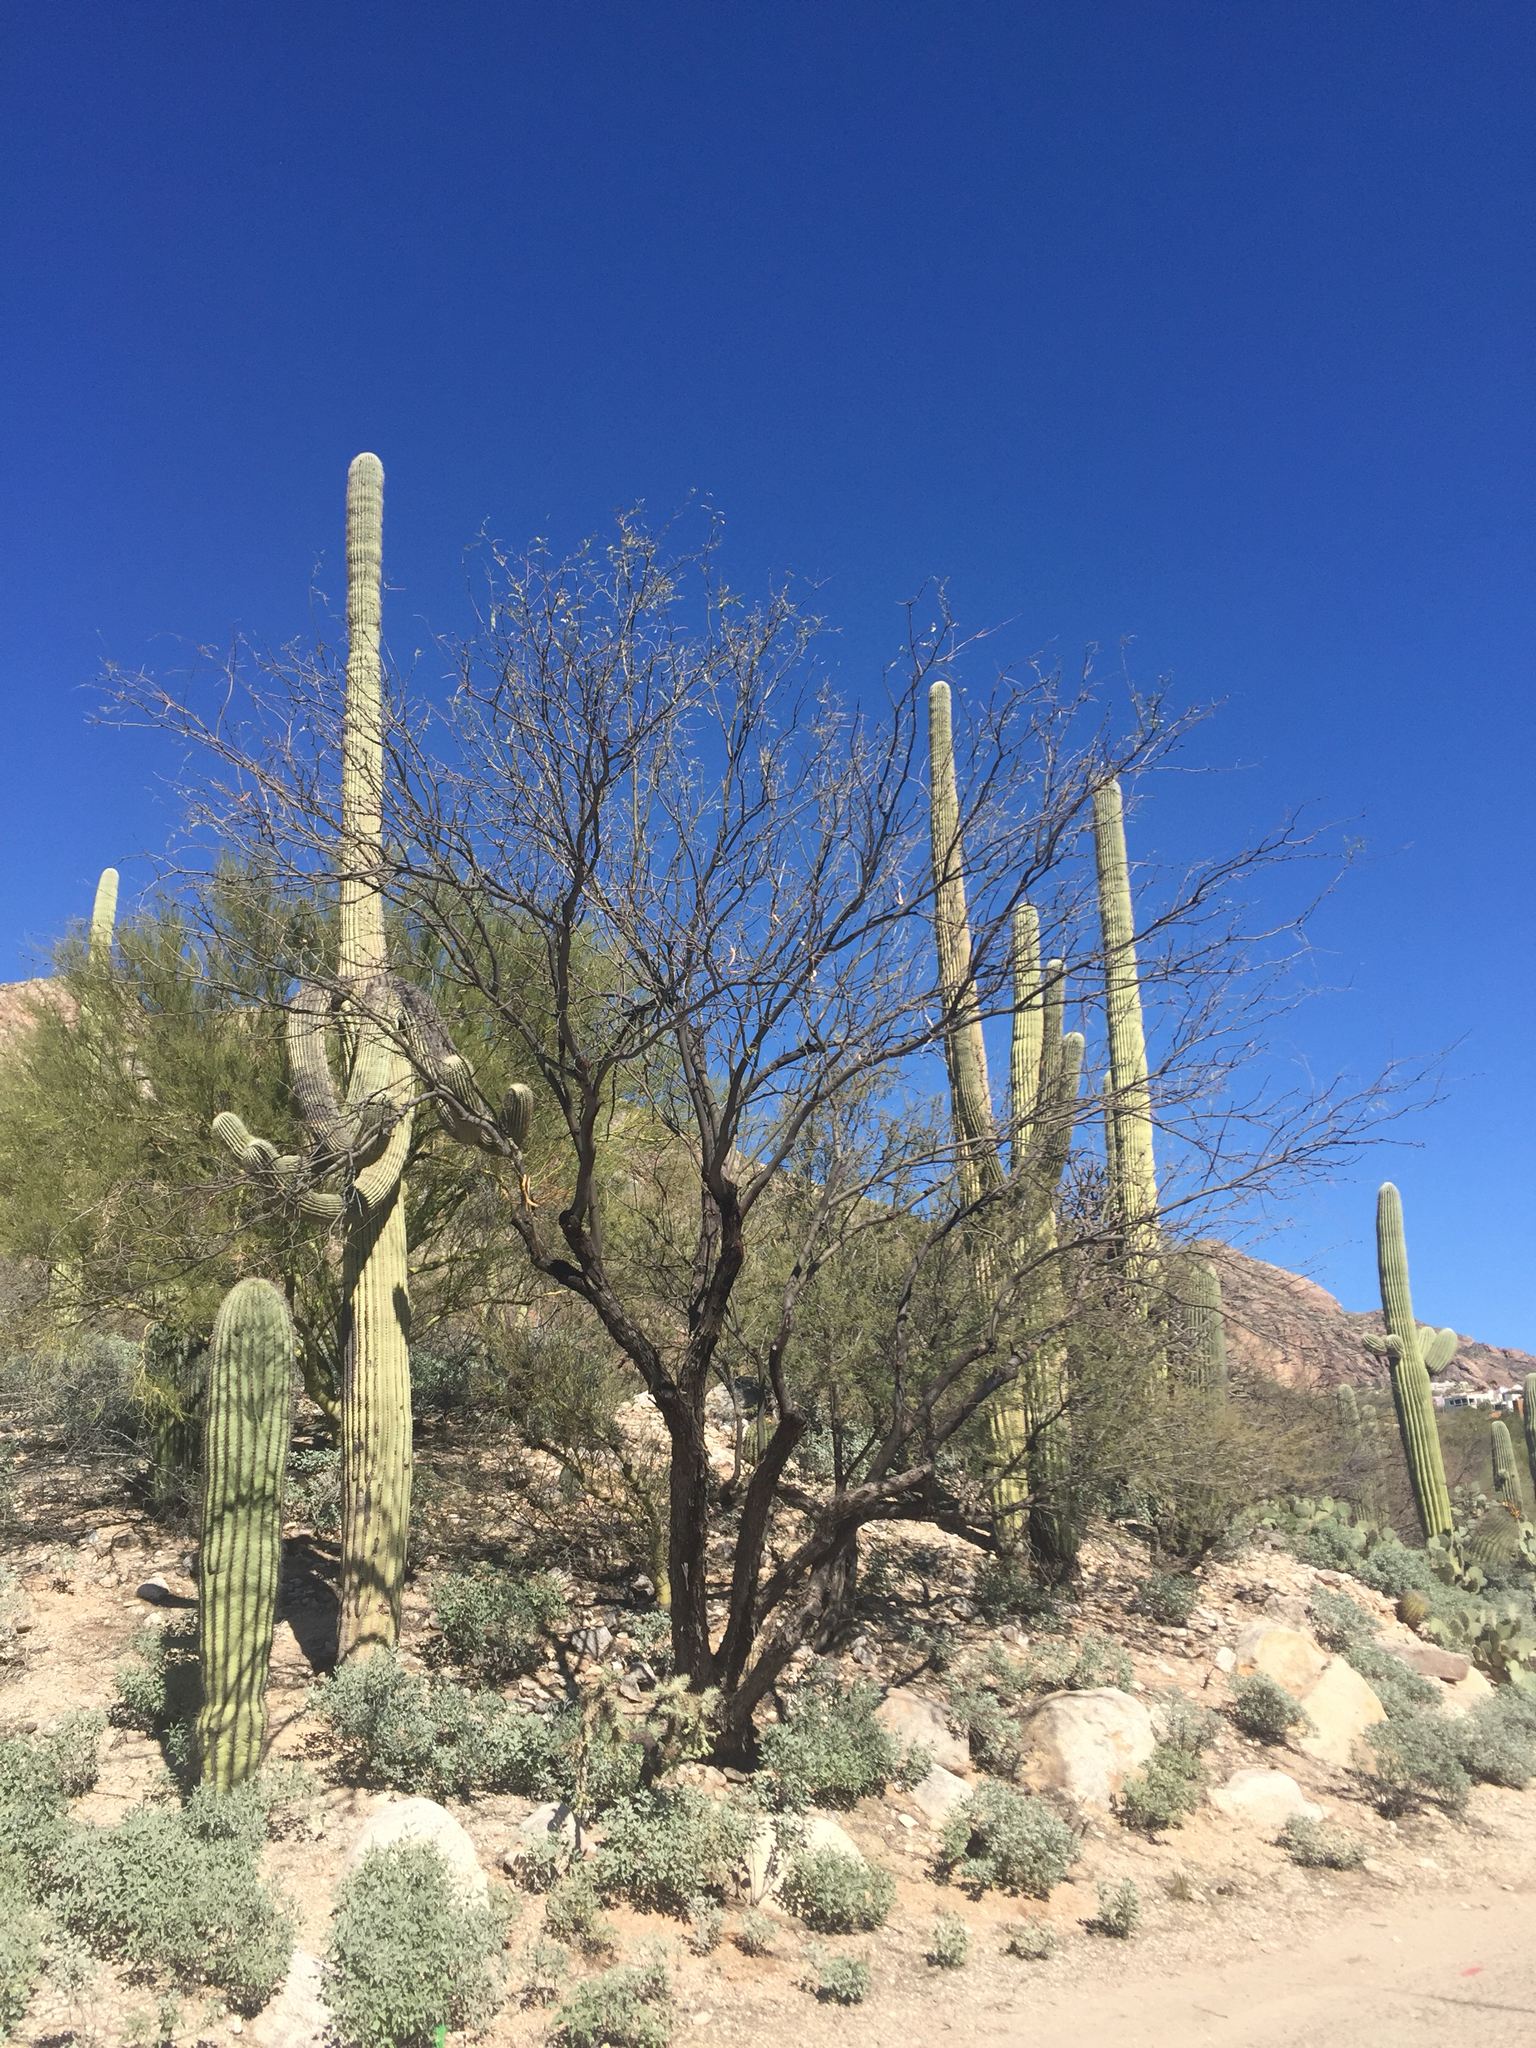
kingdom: Plantae
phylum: Tracheophyta
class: Magnoliopsida
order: Caryophyllales
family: Cactaceae
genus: Carnegiea
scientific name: Carnegiea gigantea
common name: Saguaro
